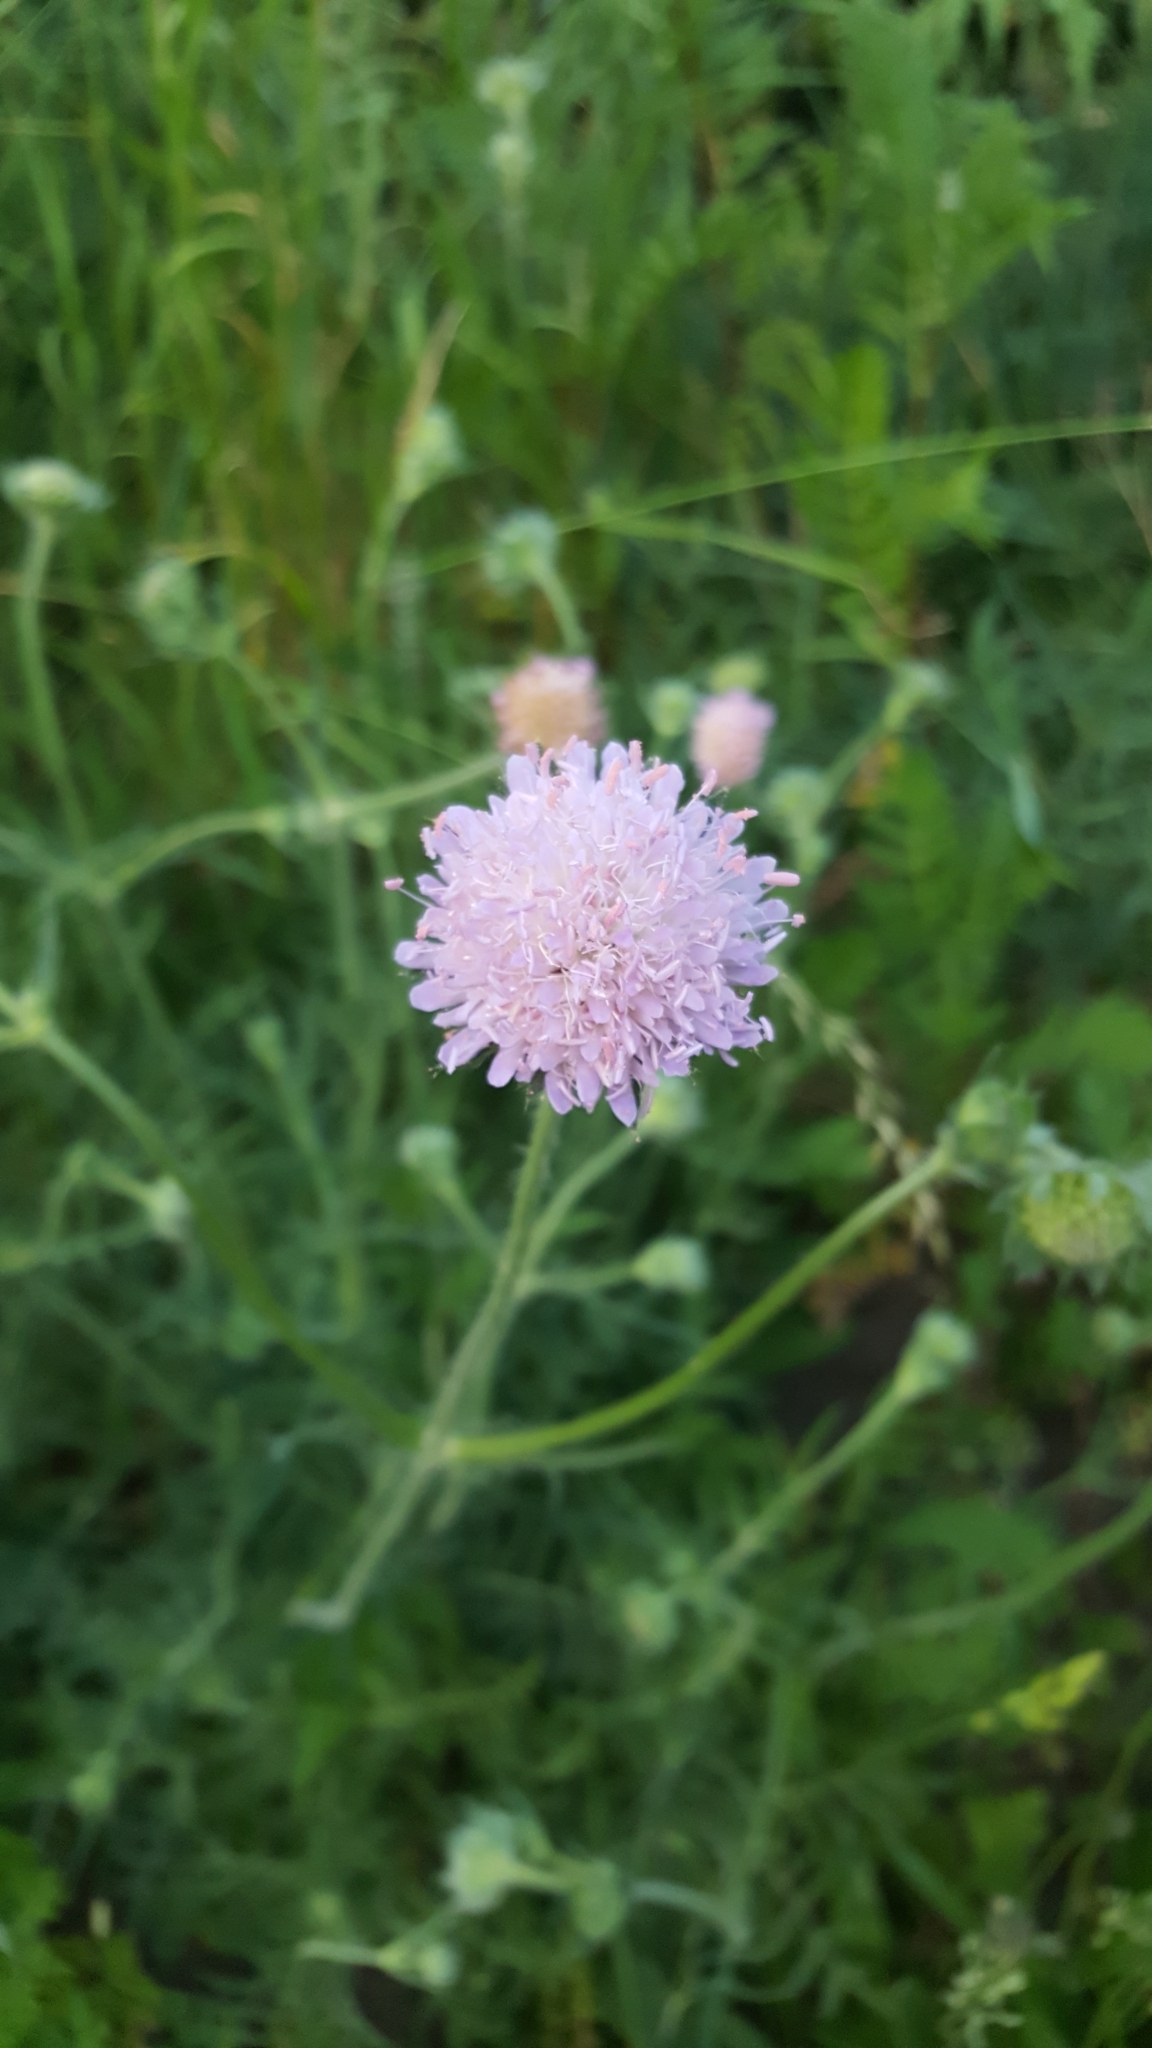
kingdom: Plantae
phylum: Tracheophyta
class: Magnoliopsida
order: Dipsacales
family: Caprifoliaceae
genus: Knautia
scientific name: Knautia arvensis
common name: Field scabiosa
